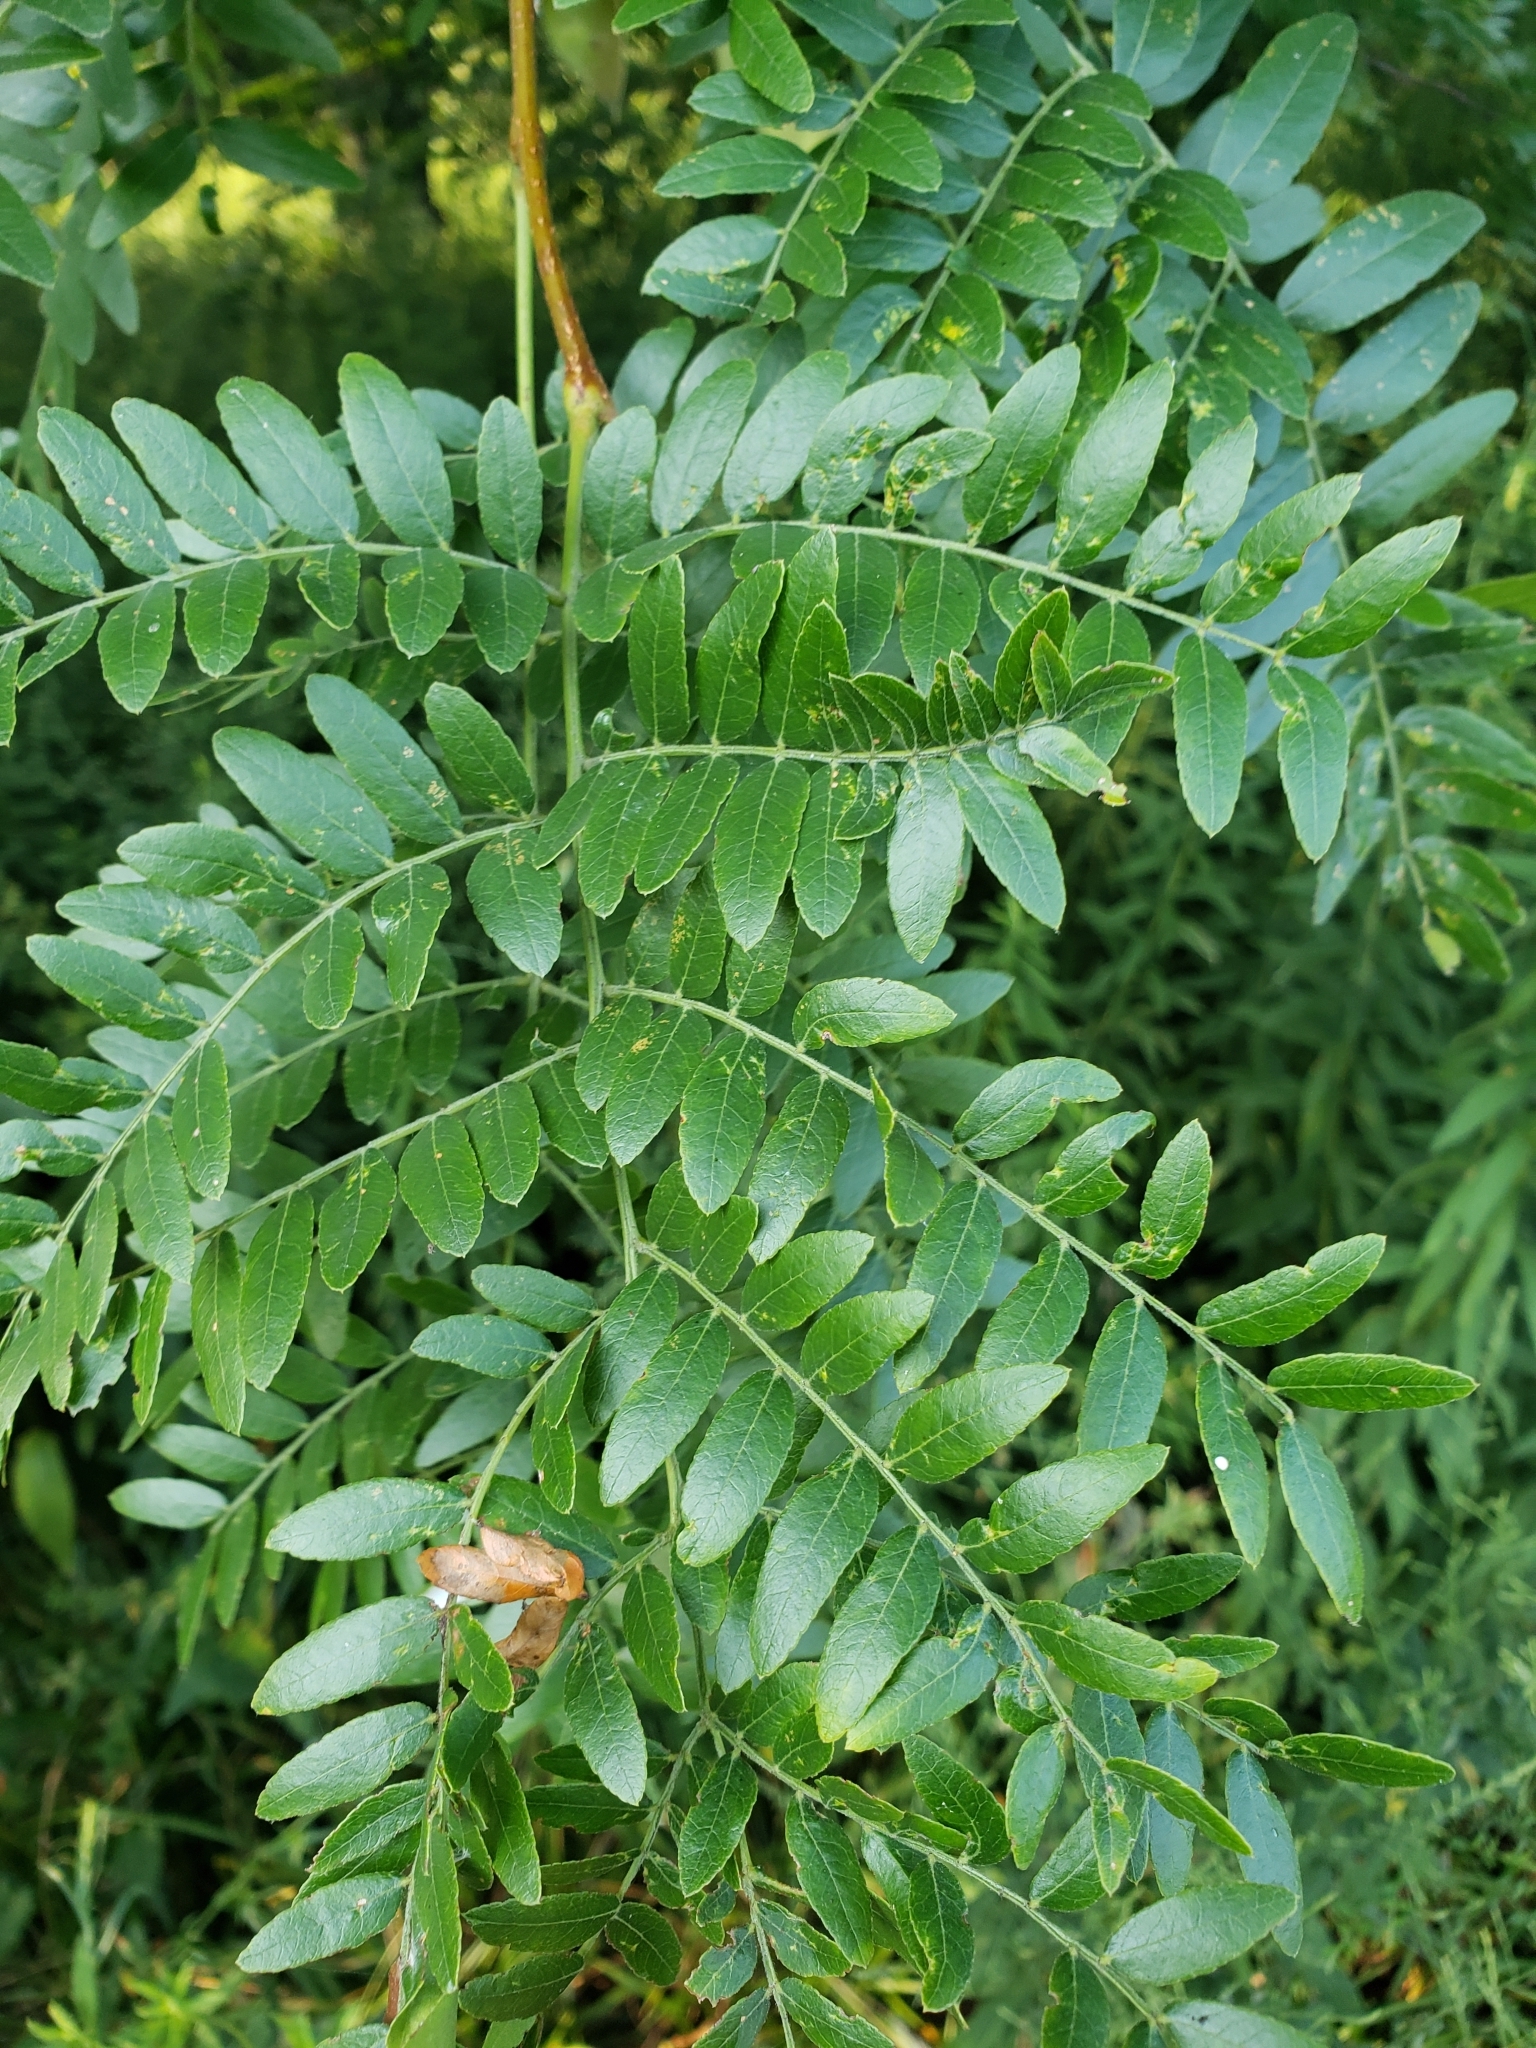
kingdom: Plantae
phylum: Tracheophyta
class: Magnoliopsida
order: Fabales
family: Fabaceae
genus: Gleditsia
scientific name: Gleditsia triacanthos
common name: Common honeylocust
